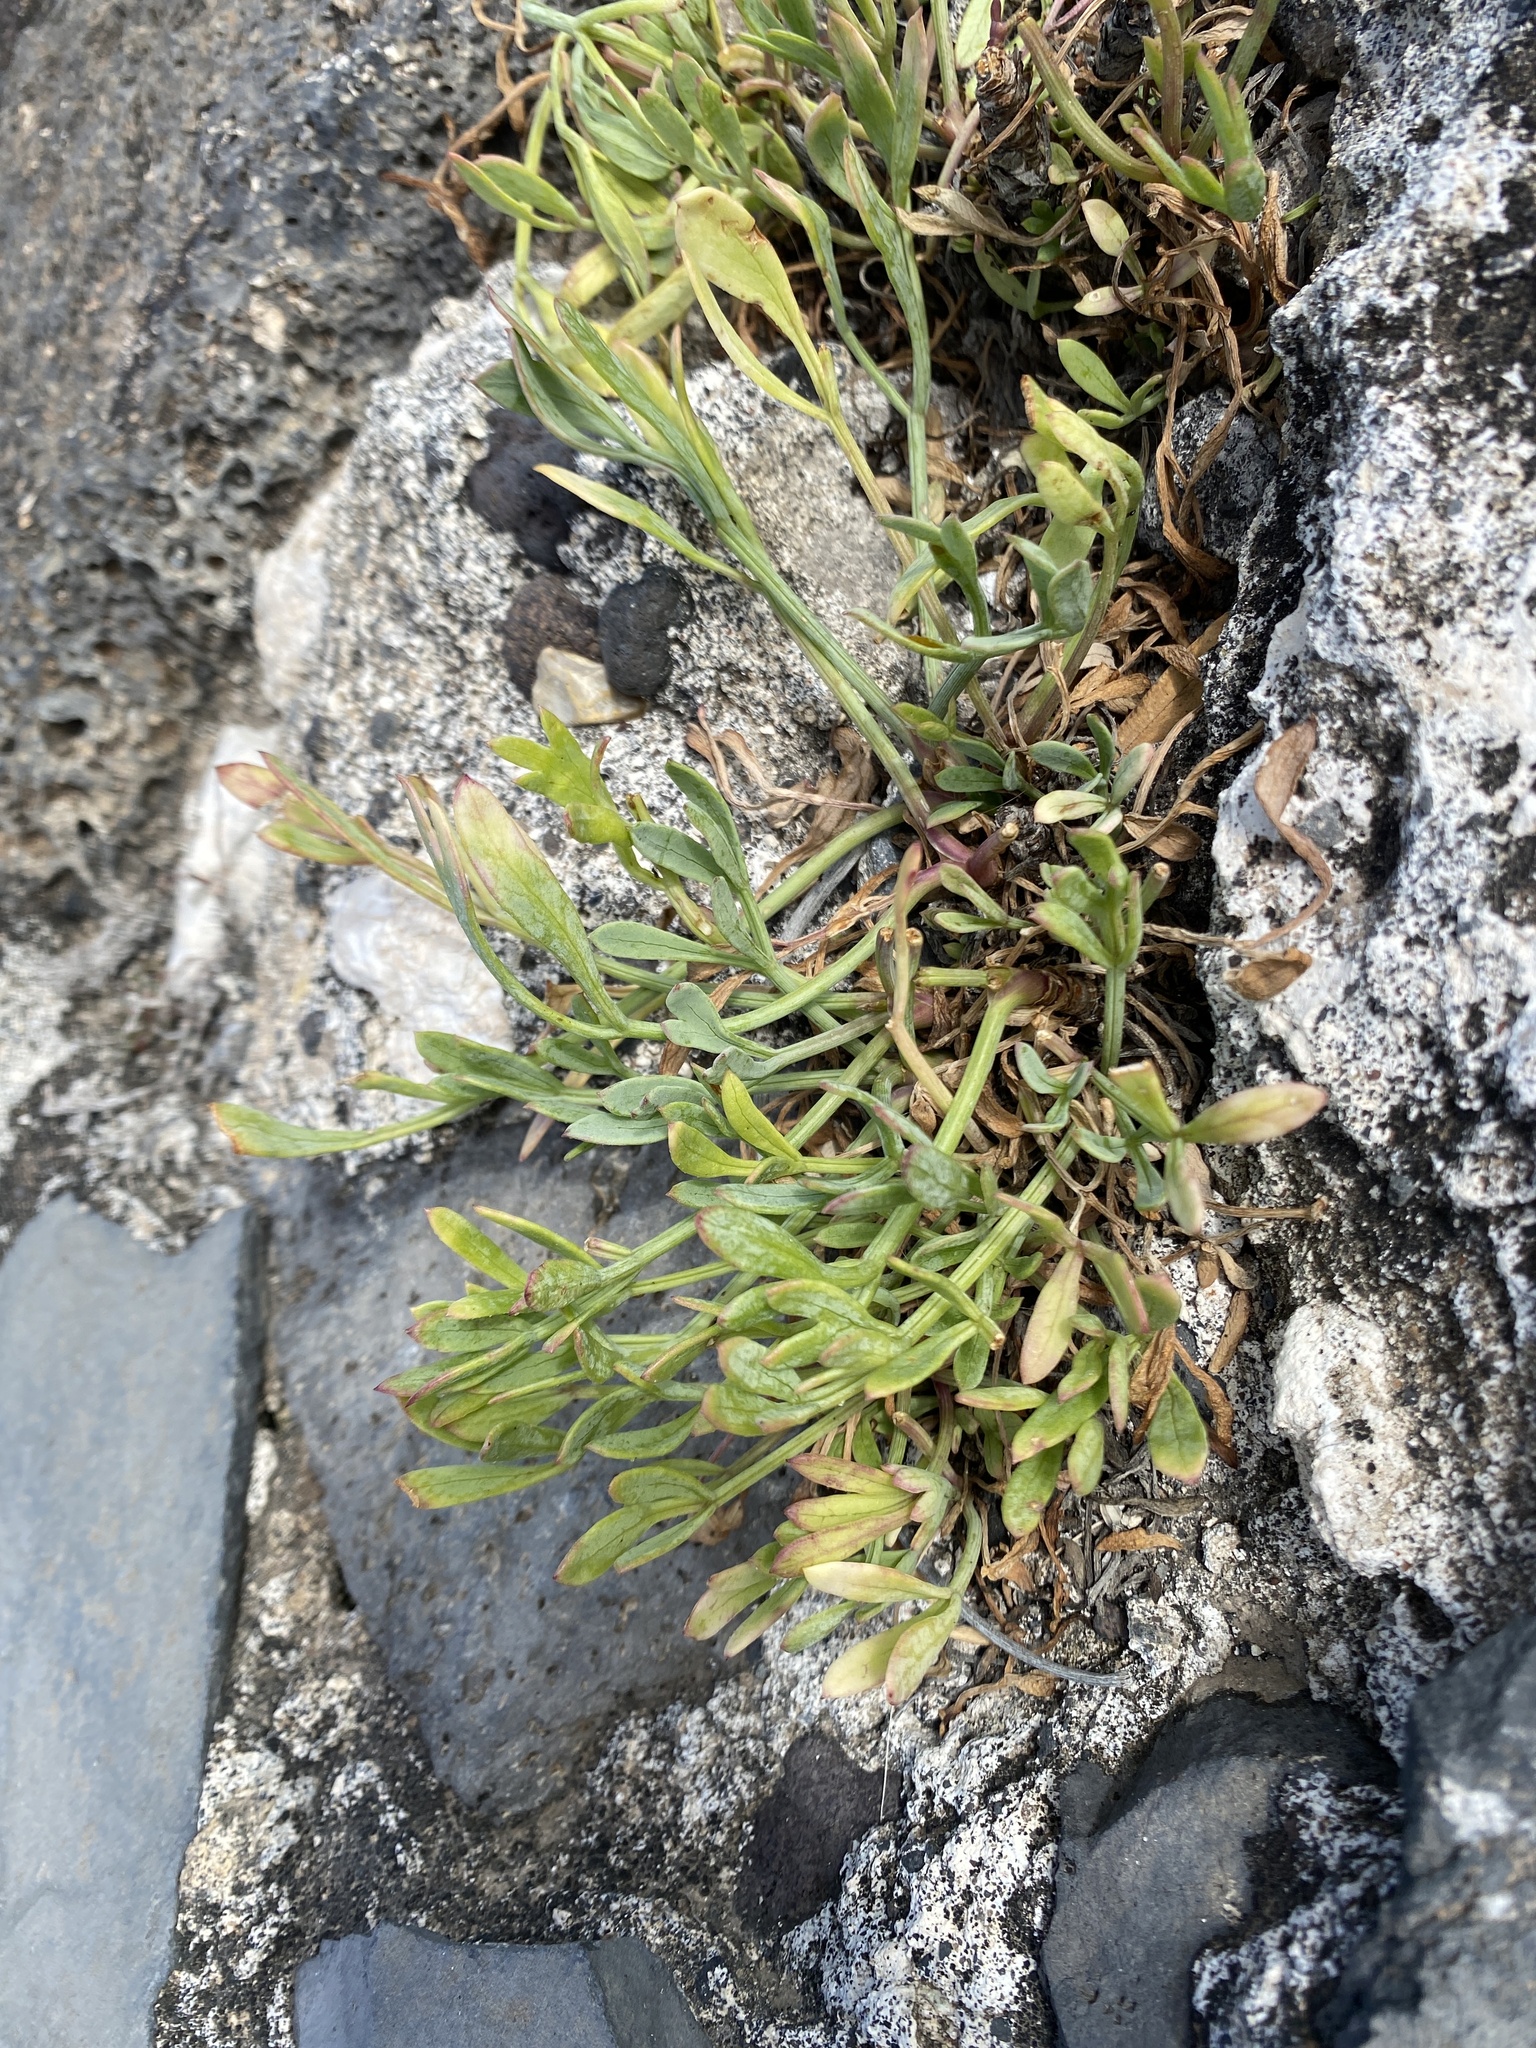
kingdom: Plantae
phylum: Tracheophyta
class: Magnoliopsida
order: Apiales
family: Apiaceae
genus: Crithmum
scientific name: Crithmum maritimum
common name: Rock samphire
